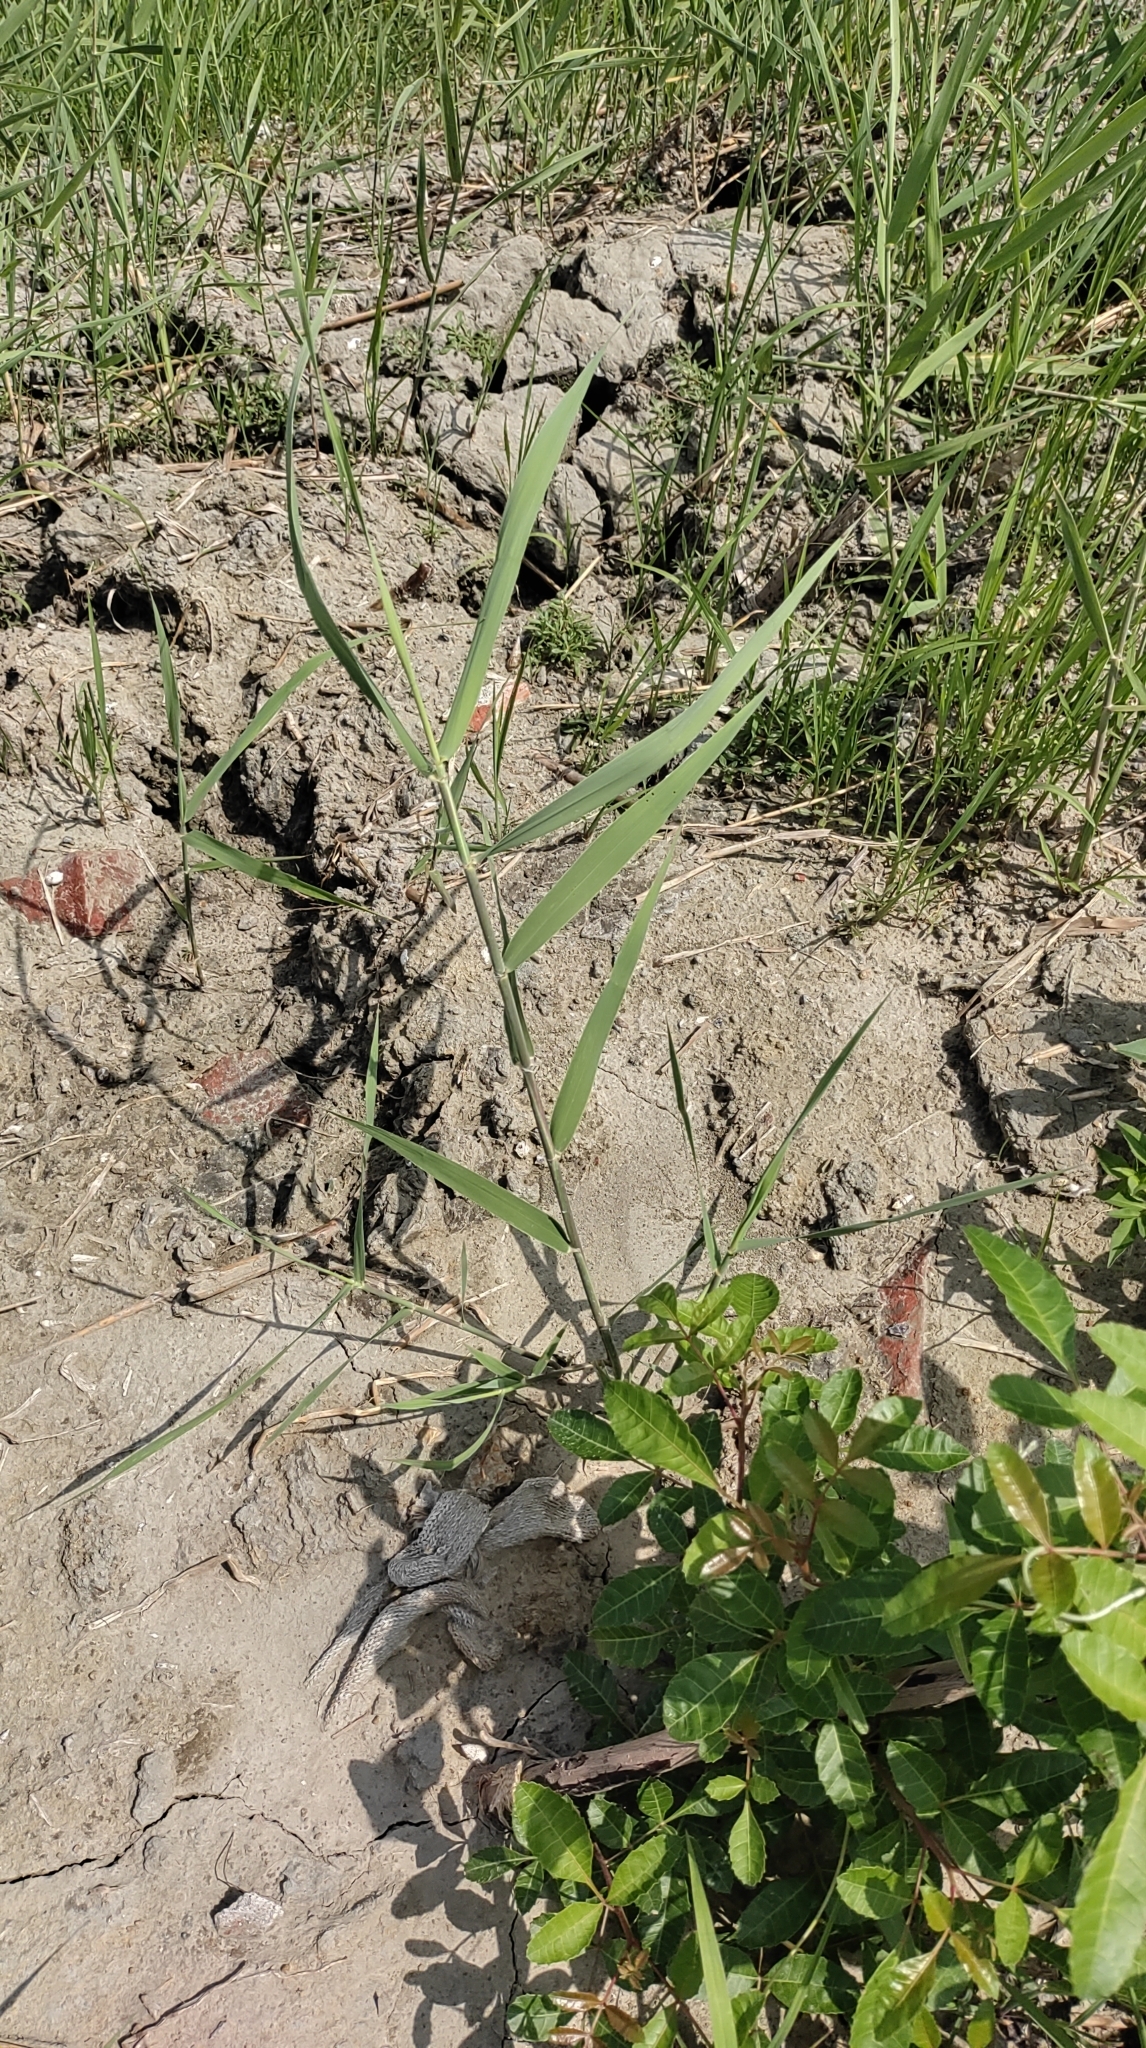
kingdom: Plantae
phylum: Tracheophyta
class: Liliopsida
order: Poales
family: Poaceae
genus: Phragmites
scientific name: Phragmites australis
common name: Common reed
